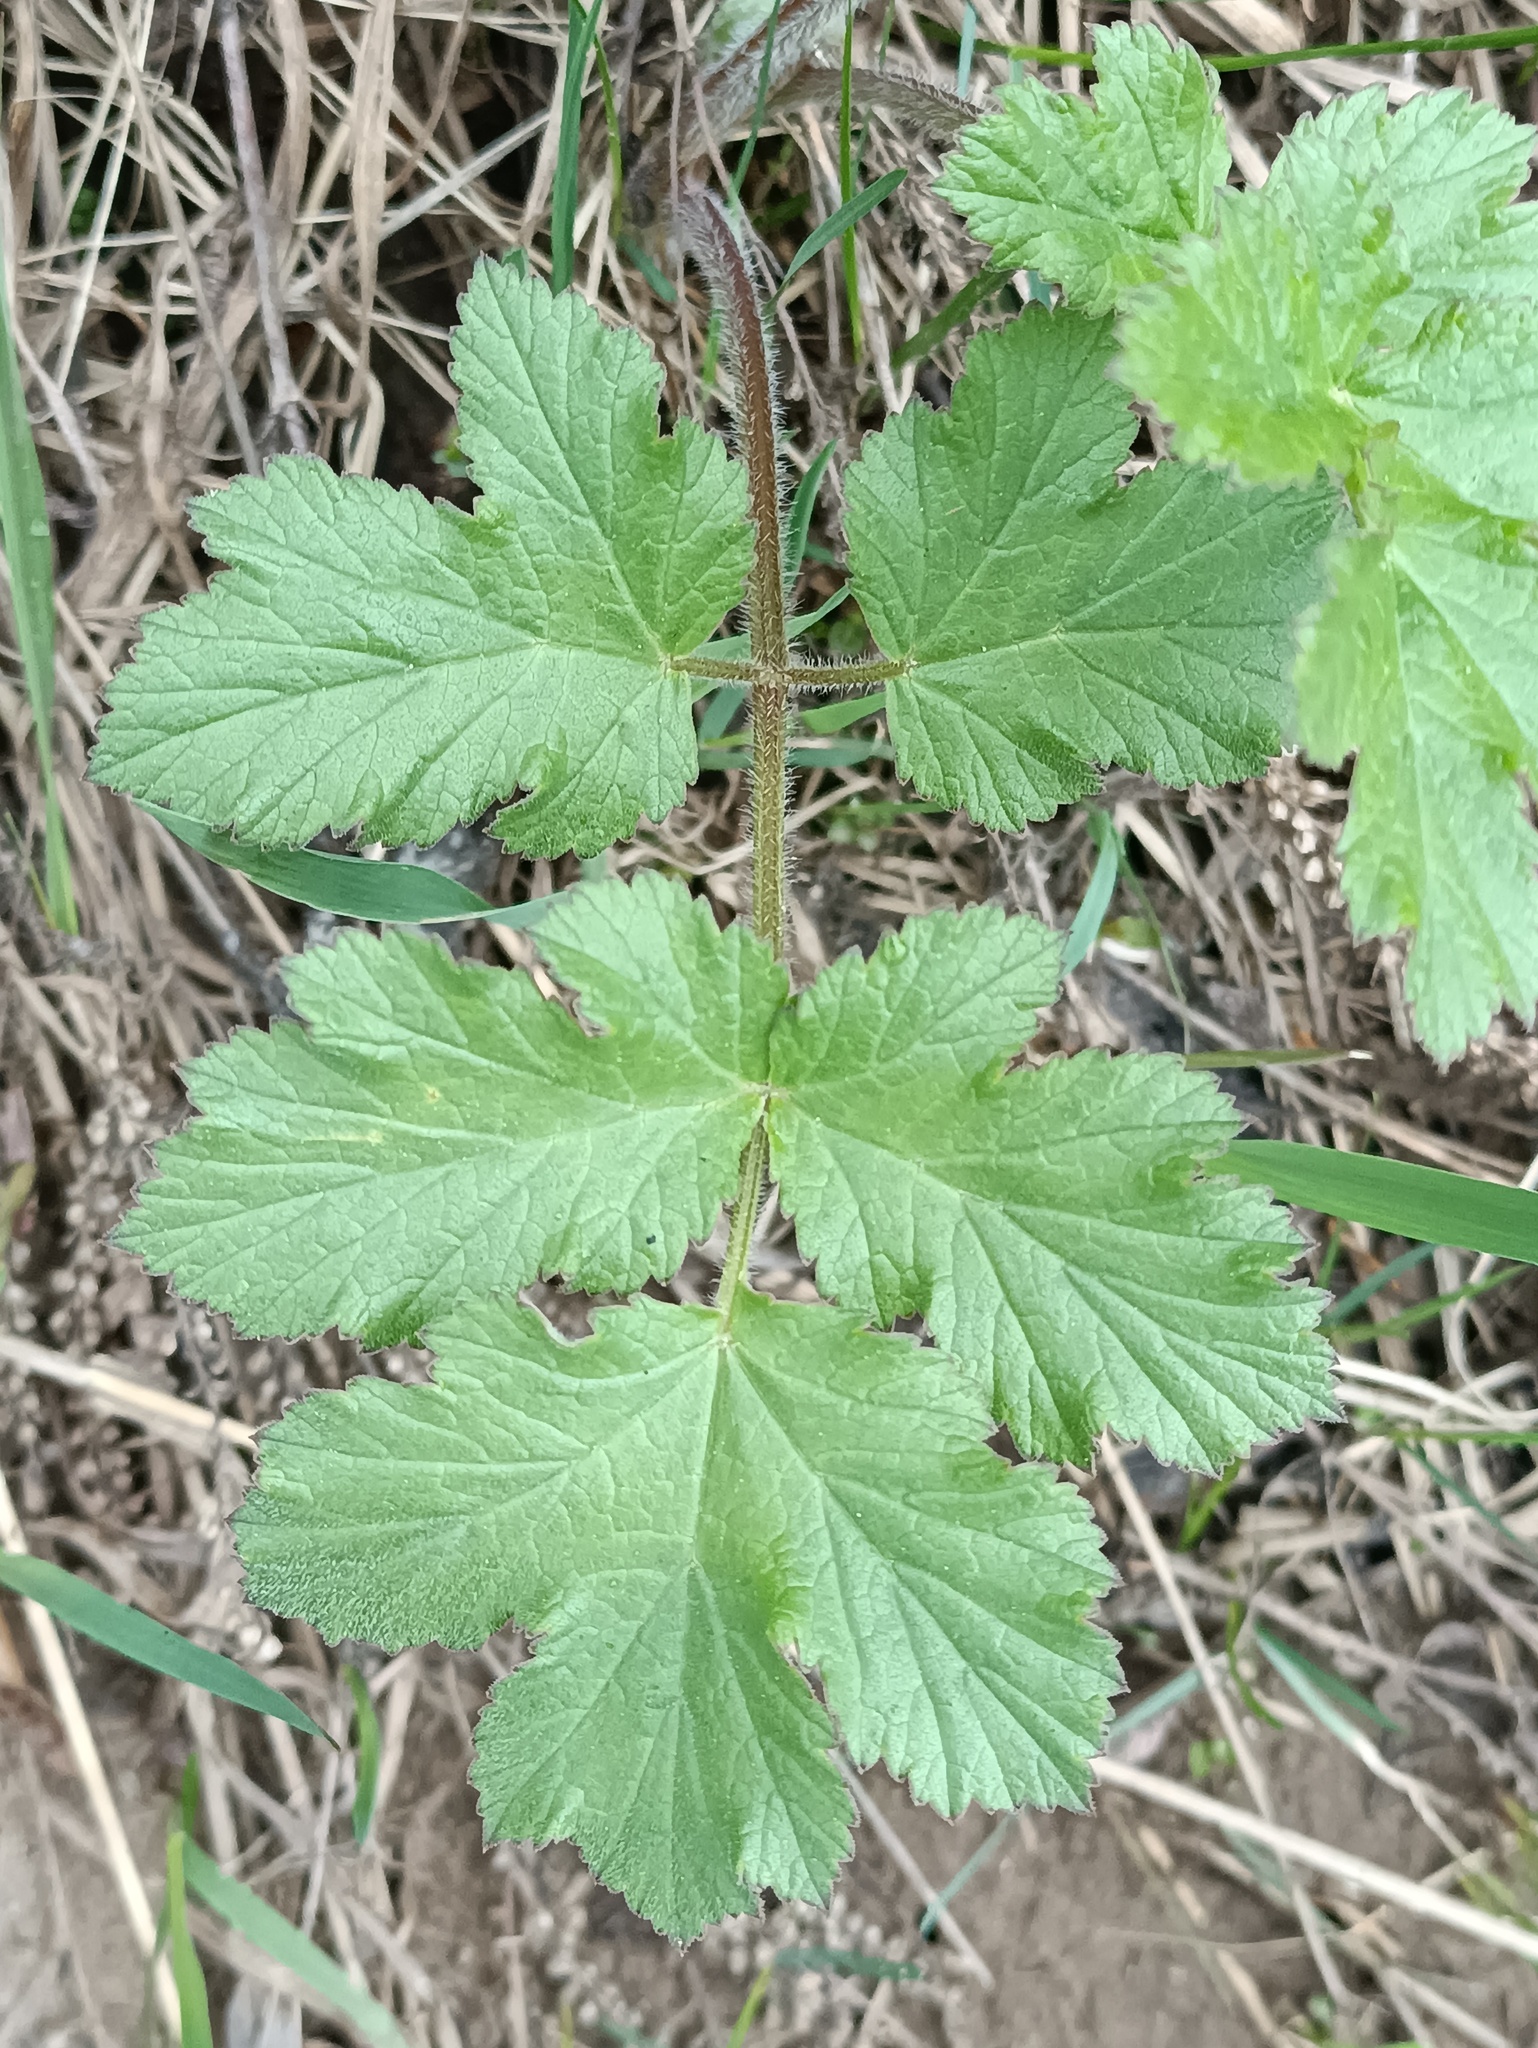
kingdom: Plantae
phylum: Tracheophyta
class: Magnoliopsida
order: Apiales
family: Apiaceae
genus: Heracleum
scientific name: Heracleum sphondylium
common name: Hogweed
